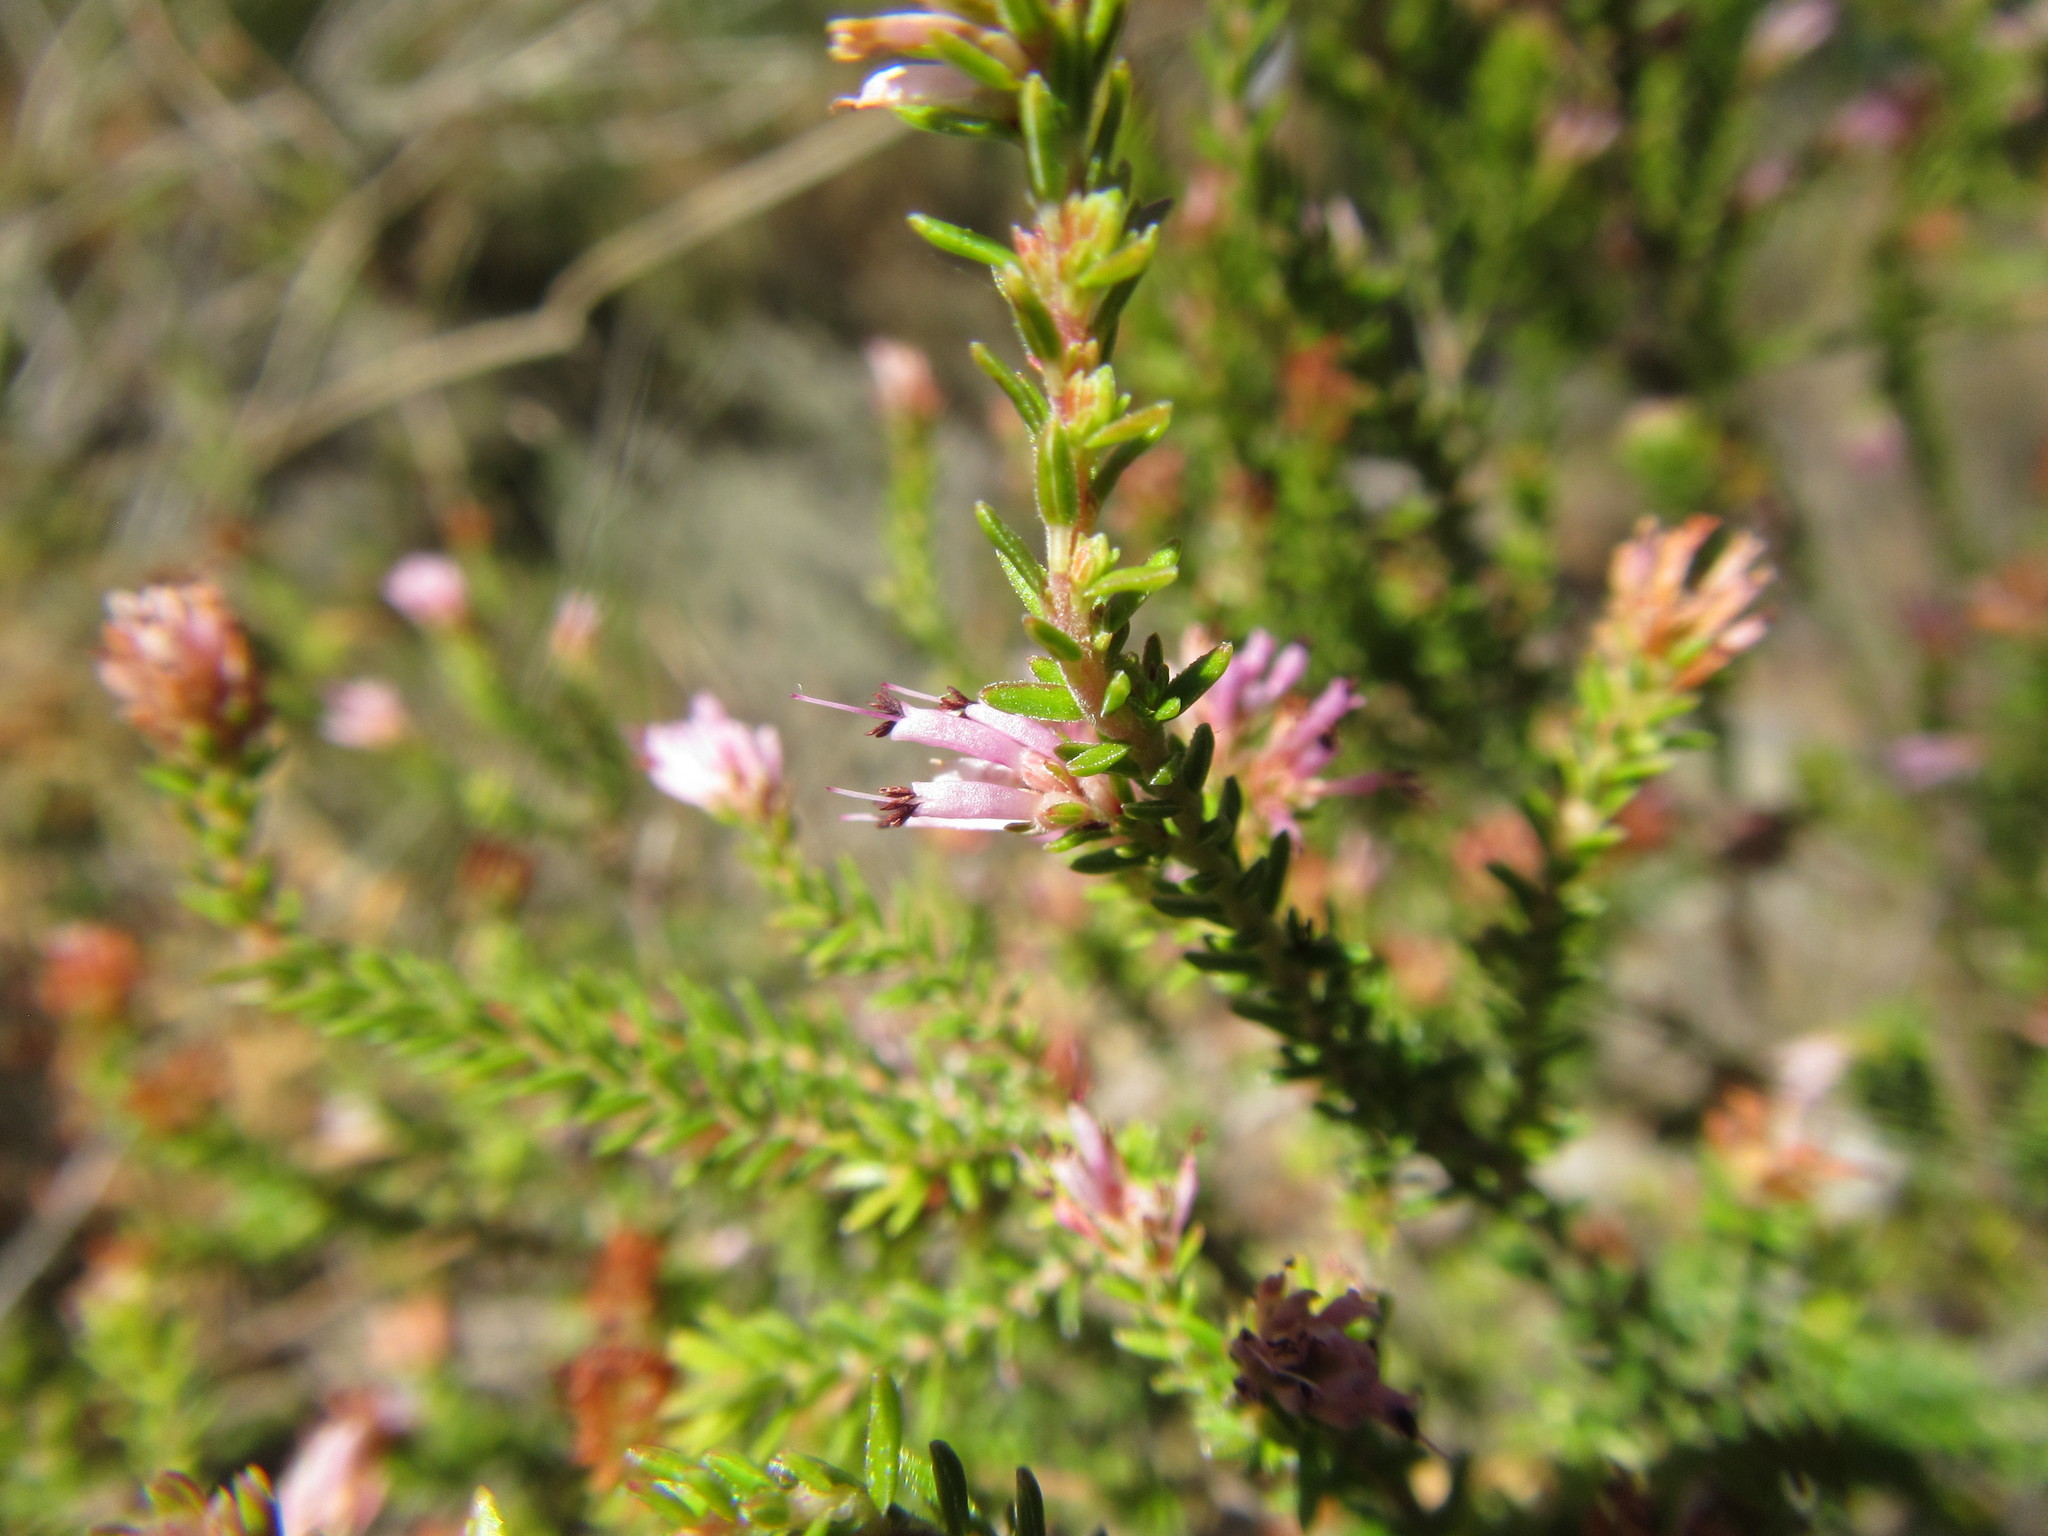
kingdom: Plantae
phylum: Tracheophyta
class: Magnoliopsida
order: Ericales
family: Ericaceae
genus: Erica
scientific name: Erica labialis
